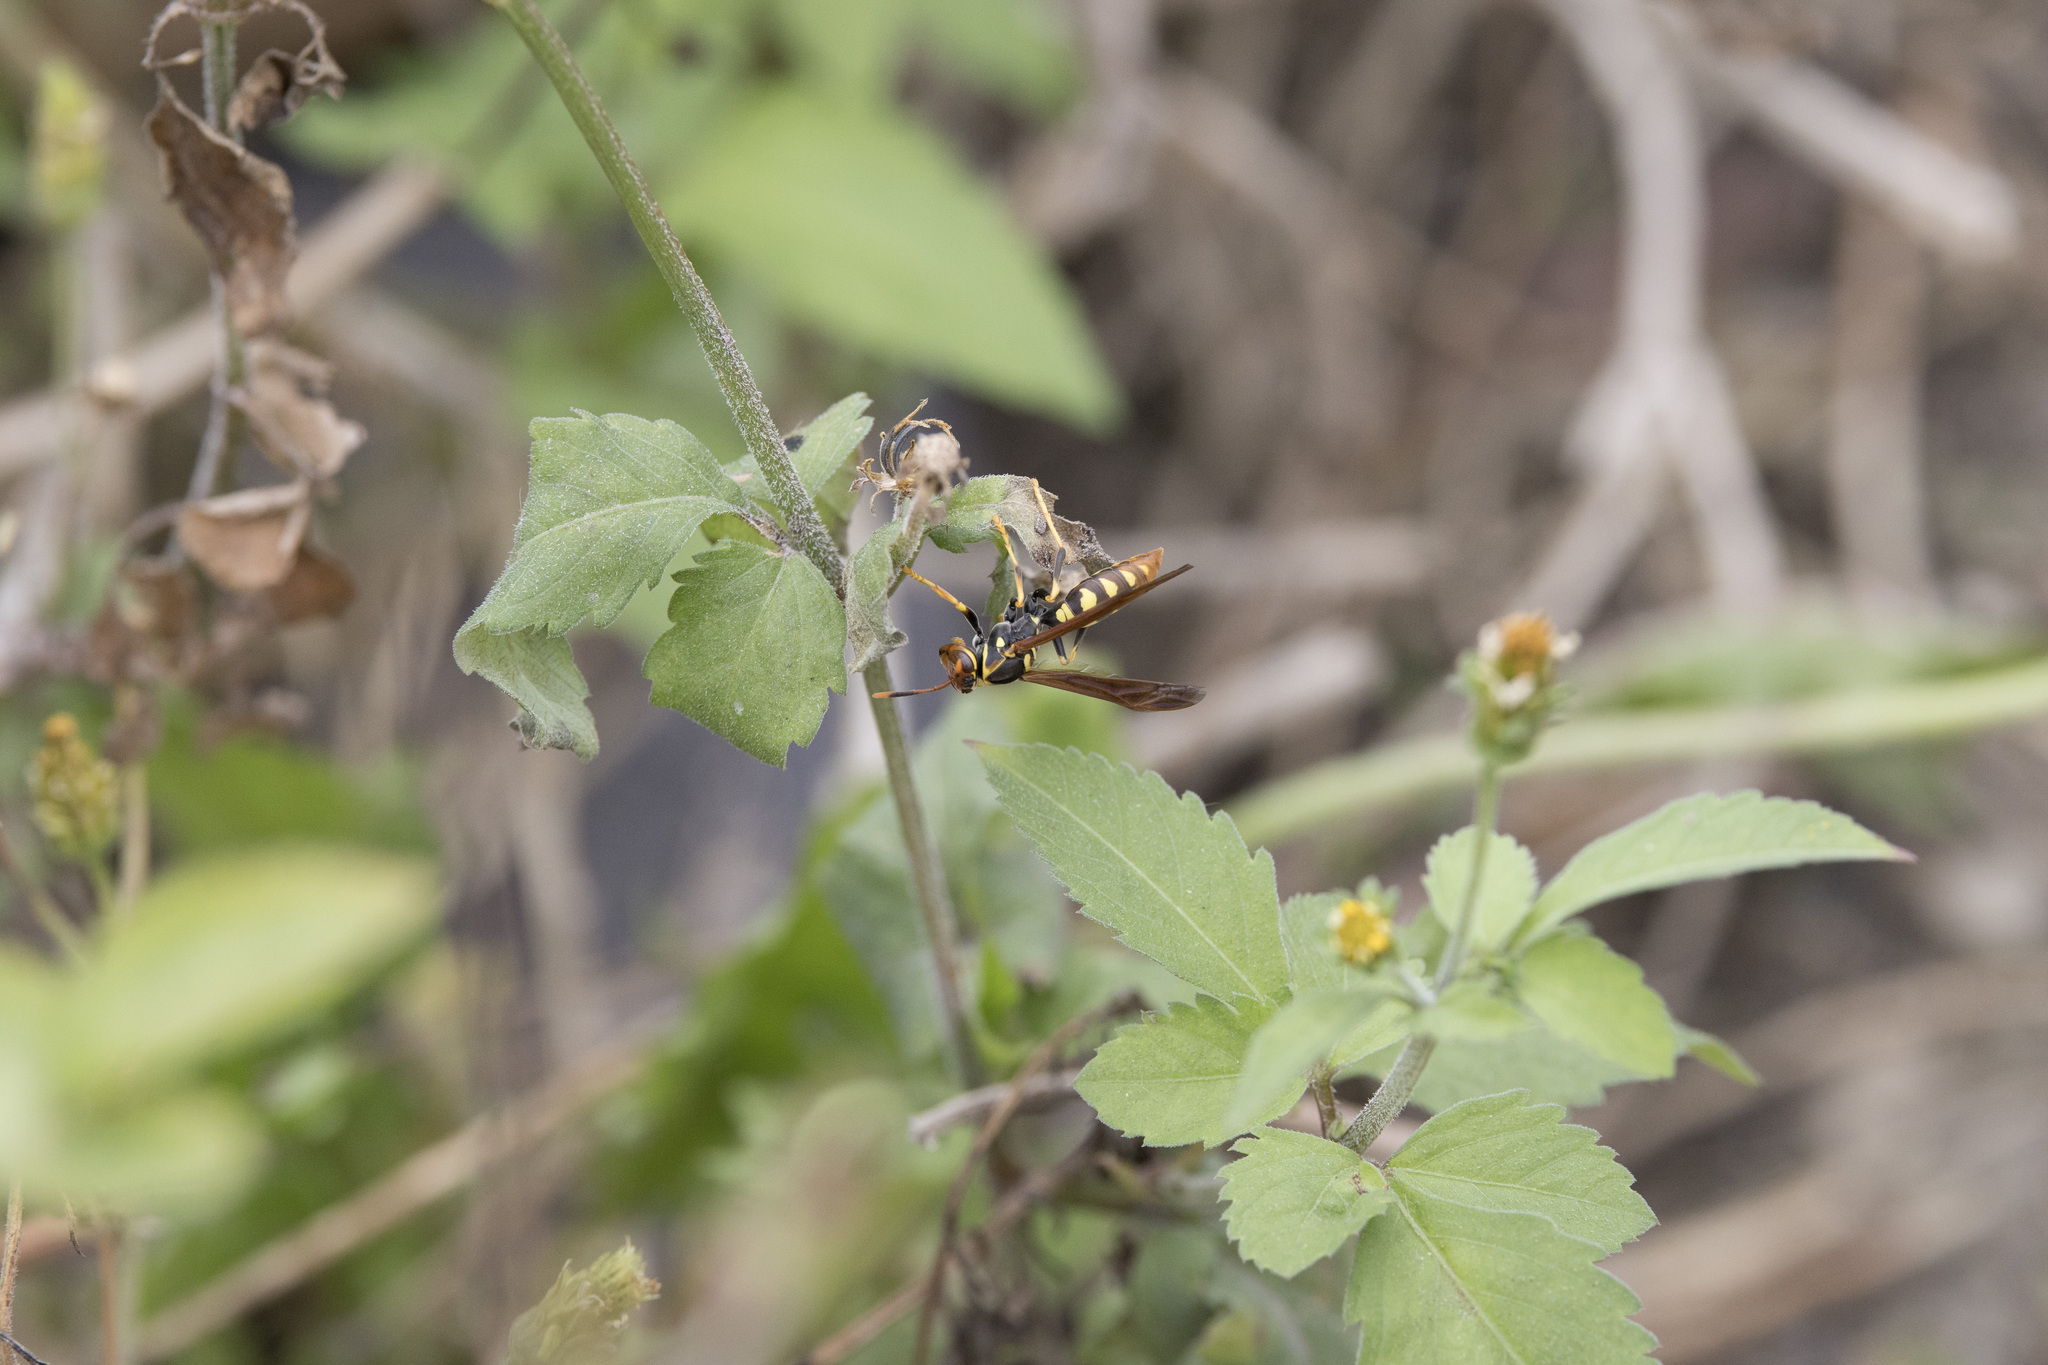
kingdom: Animalia
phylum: Arthropoda
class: Insecta
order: Hymenoptera
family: Eumenidae
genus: Polistes
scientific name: Polistes weyrauchorum
